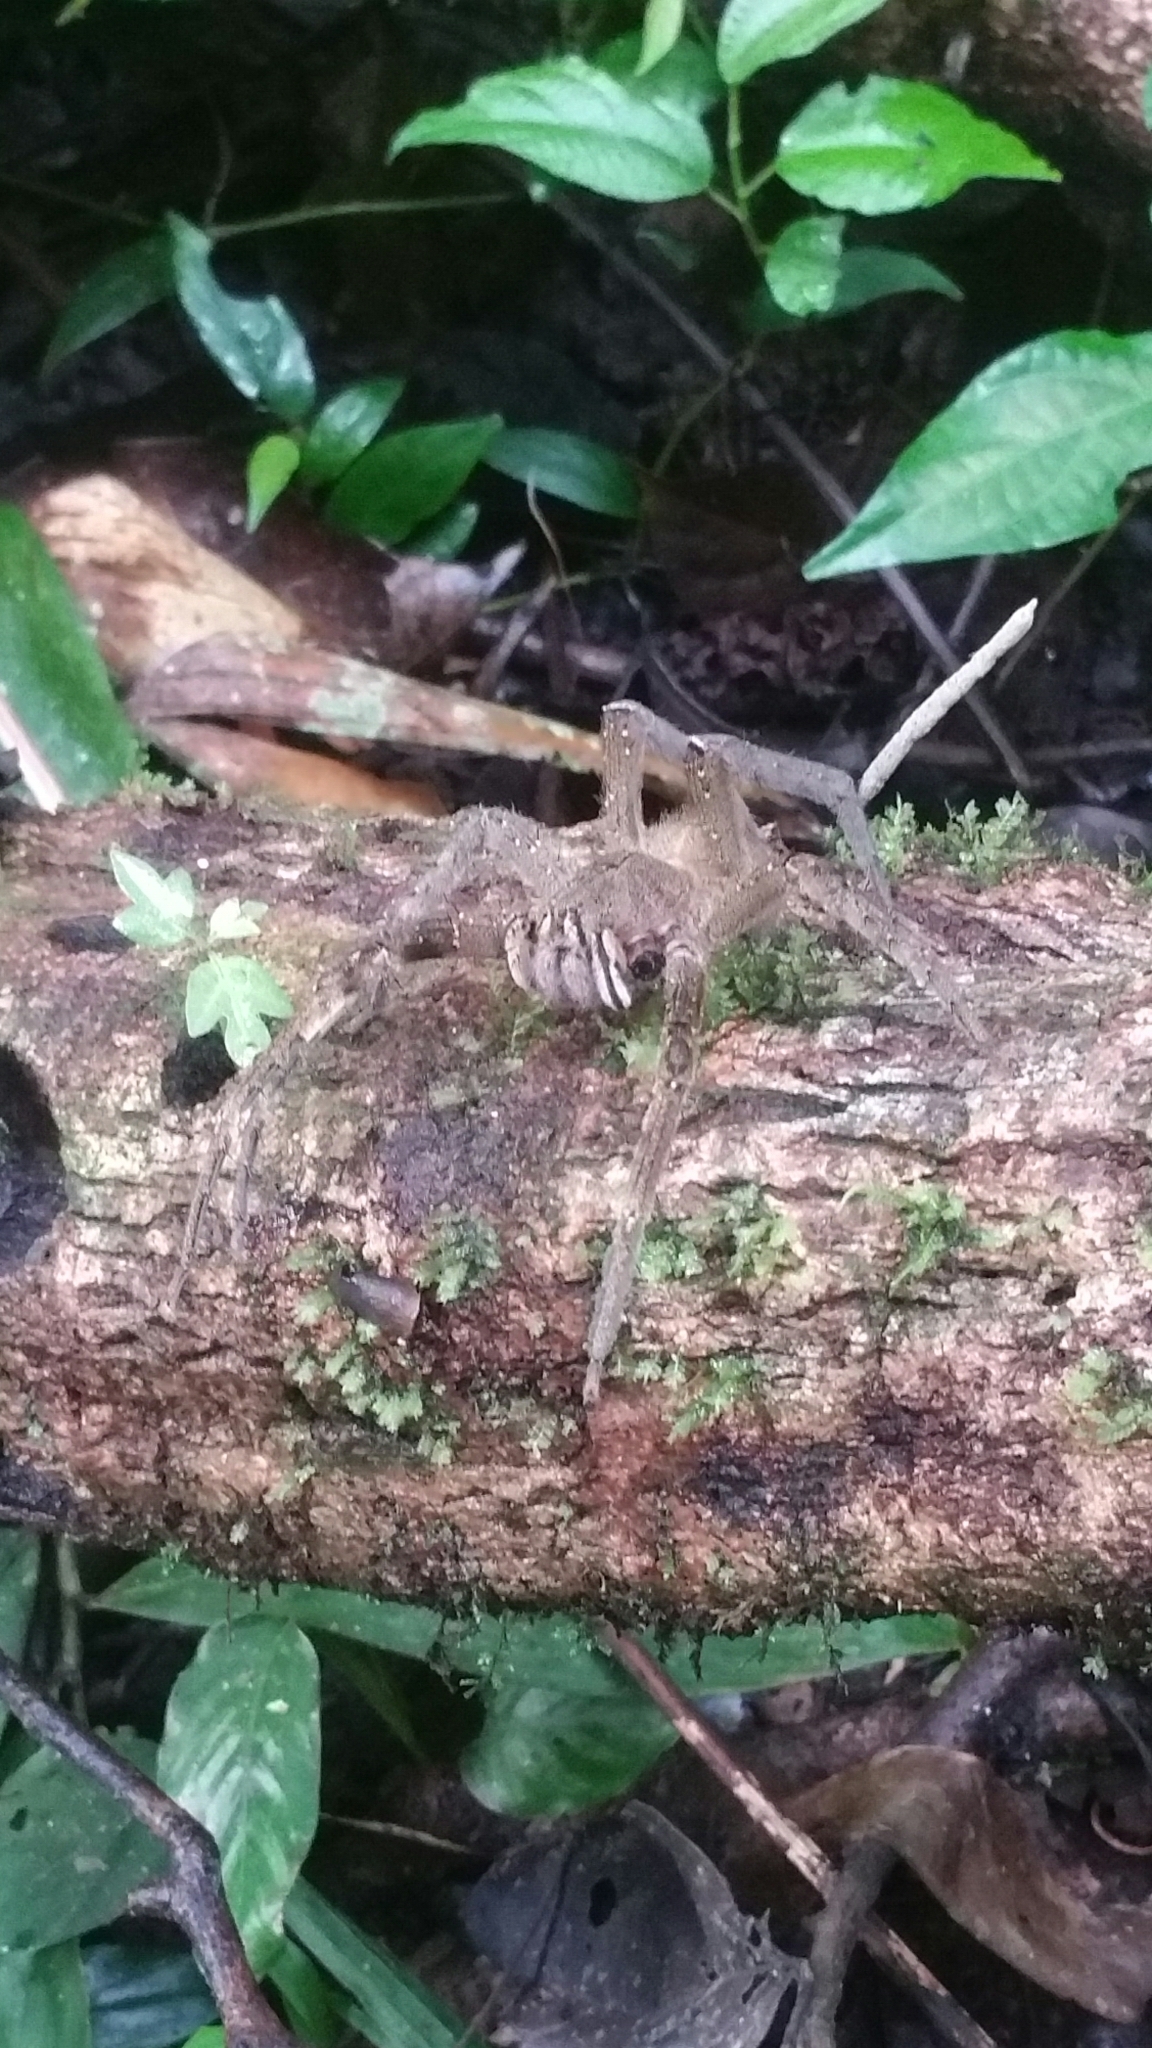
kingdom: Animalia
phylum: Arthropoda
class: Arachnida
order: Araneae
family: Ctenidae
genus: Phoneutria
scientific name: Phoneutria fera
